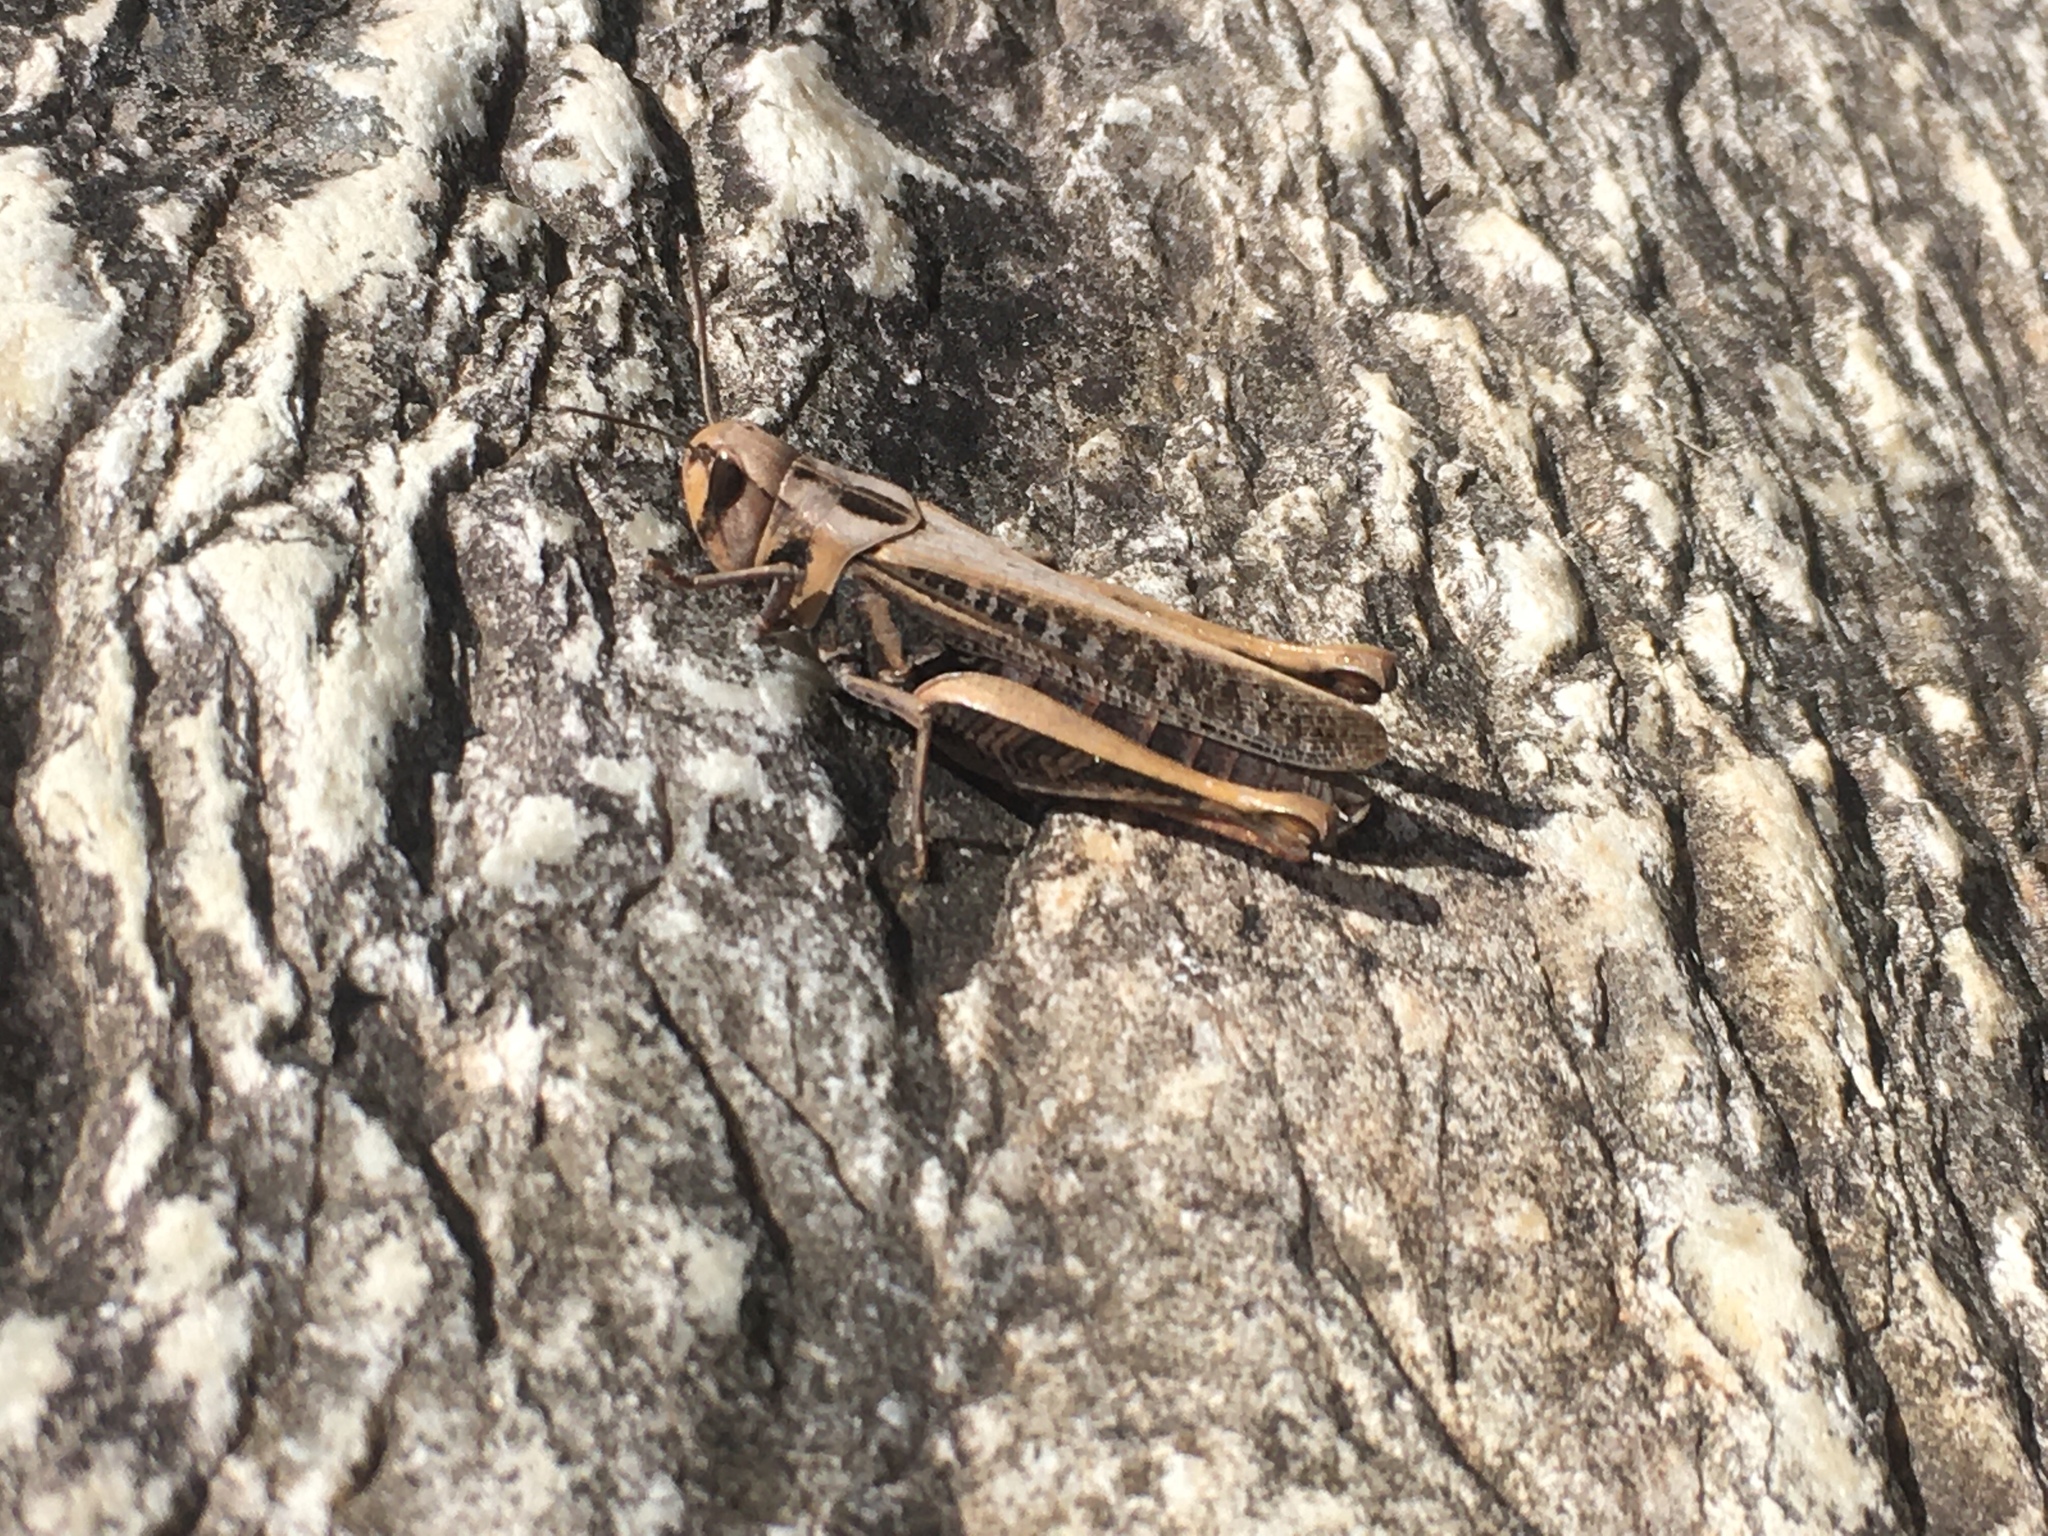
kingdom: Animalia
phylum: Arthropoda
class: Insecta
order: Orthoptera
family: Acrididae
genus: Parapellopedon
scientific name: Parapellopedon instabilis
